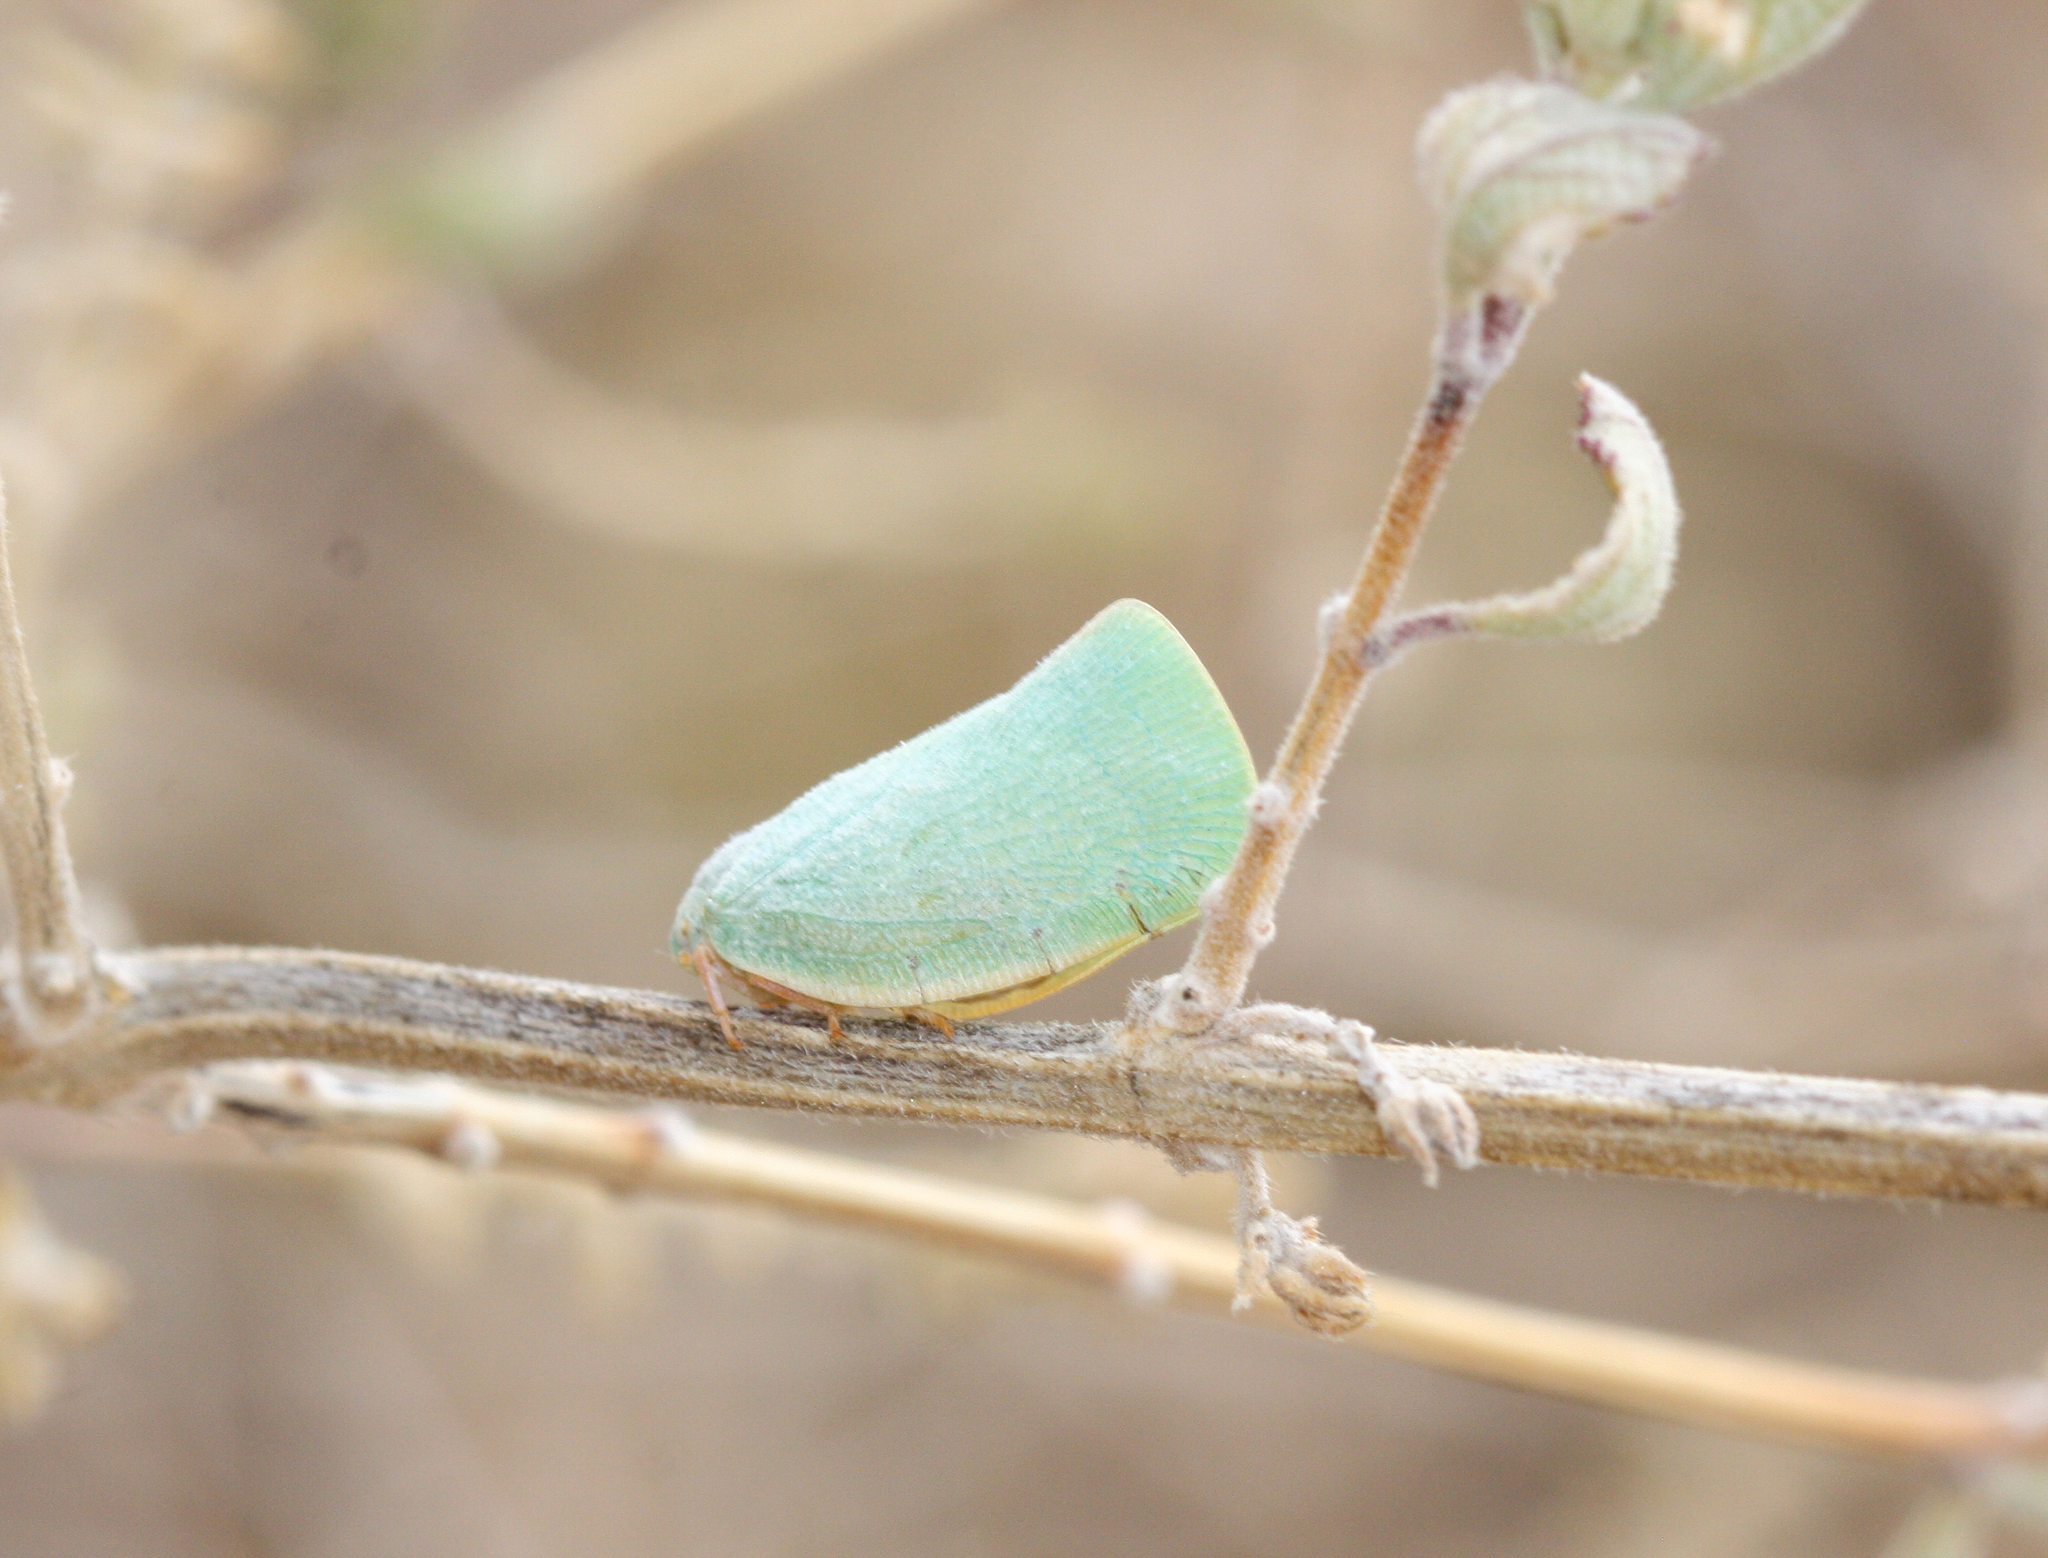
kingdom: Animalia
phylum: Arthropoda
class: Insecta
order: Hemiptera
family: Flatidae
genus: Ormenaria
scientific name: Ormenaria barberi
